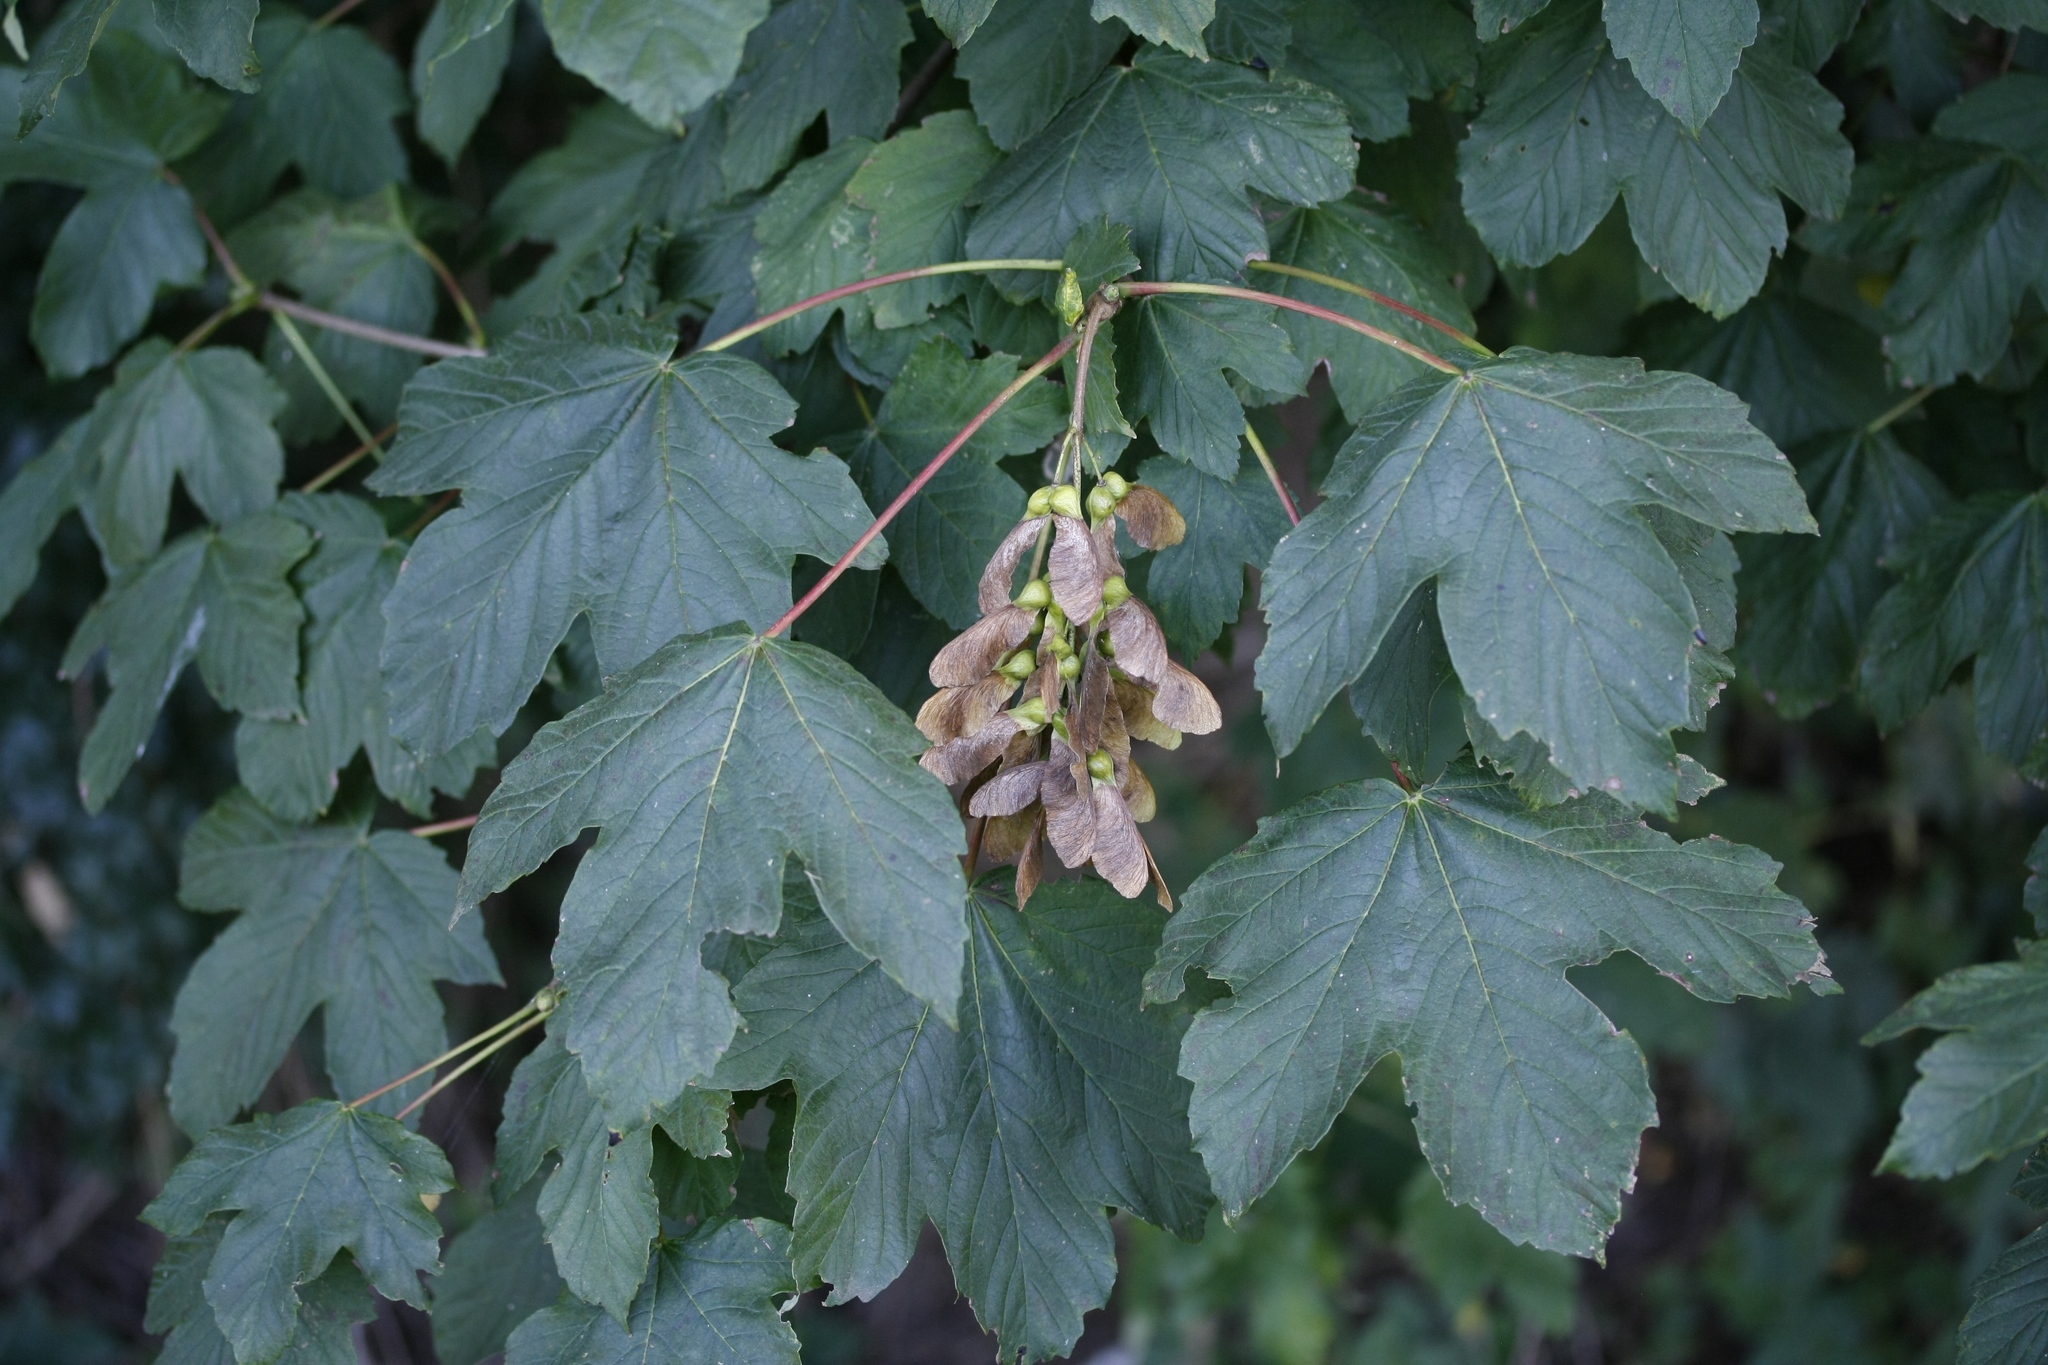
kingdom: Plantae
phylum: Tracheophyta
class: Magnoliopsida
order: Sapindales
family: Sapindaceae
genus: Acer
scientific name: Acer pseudoplatanus
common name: Sycamore
